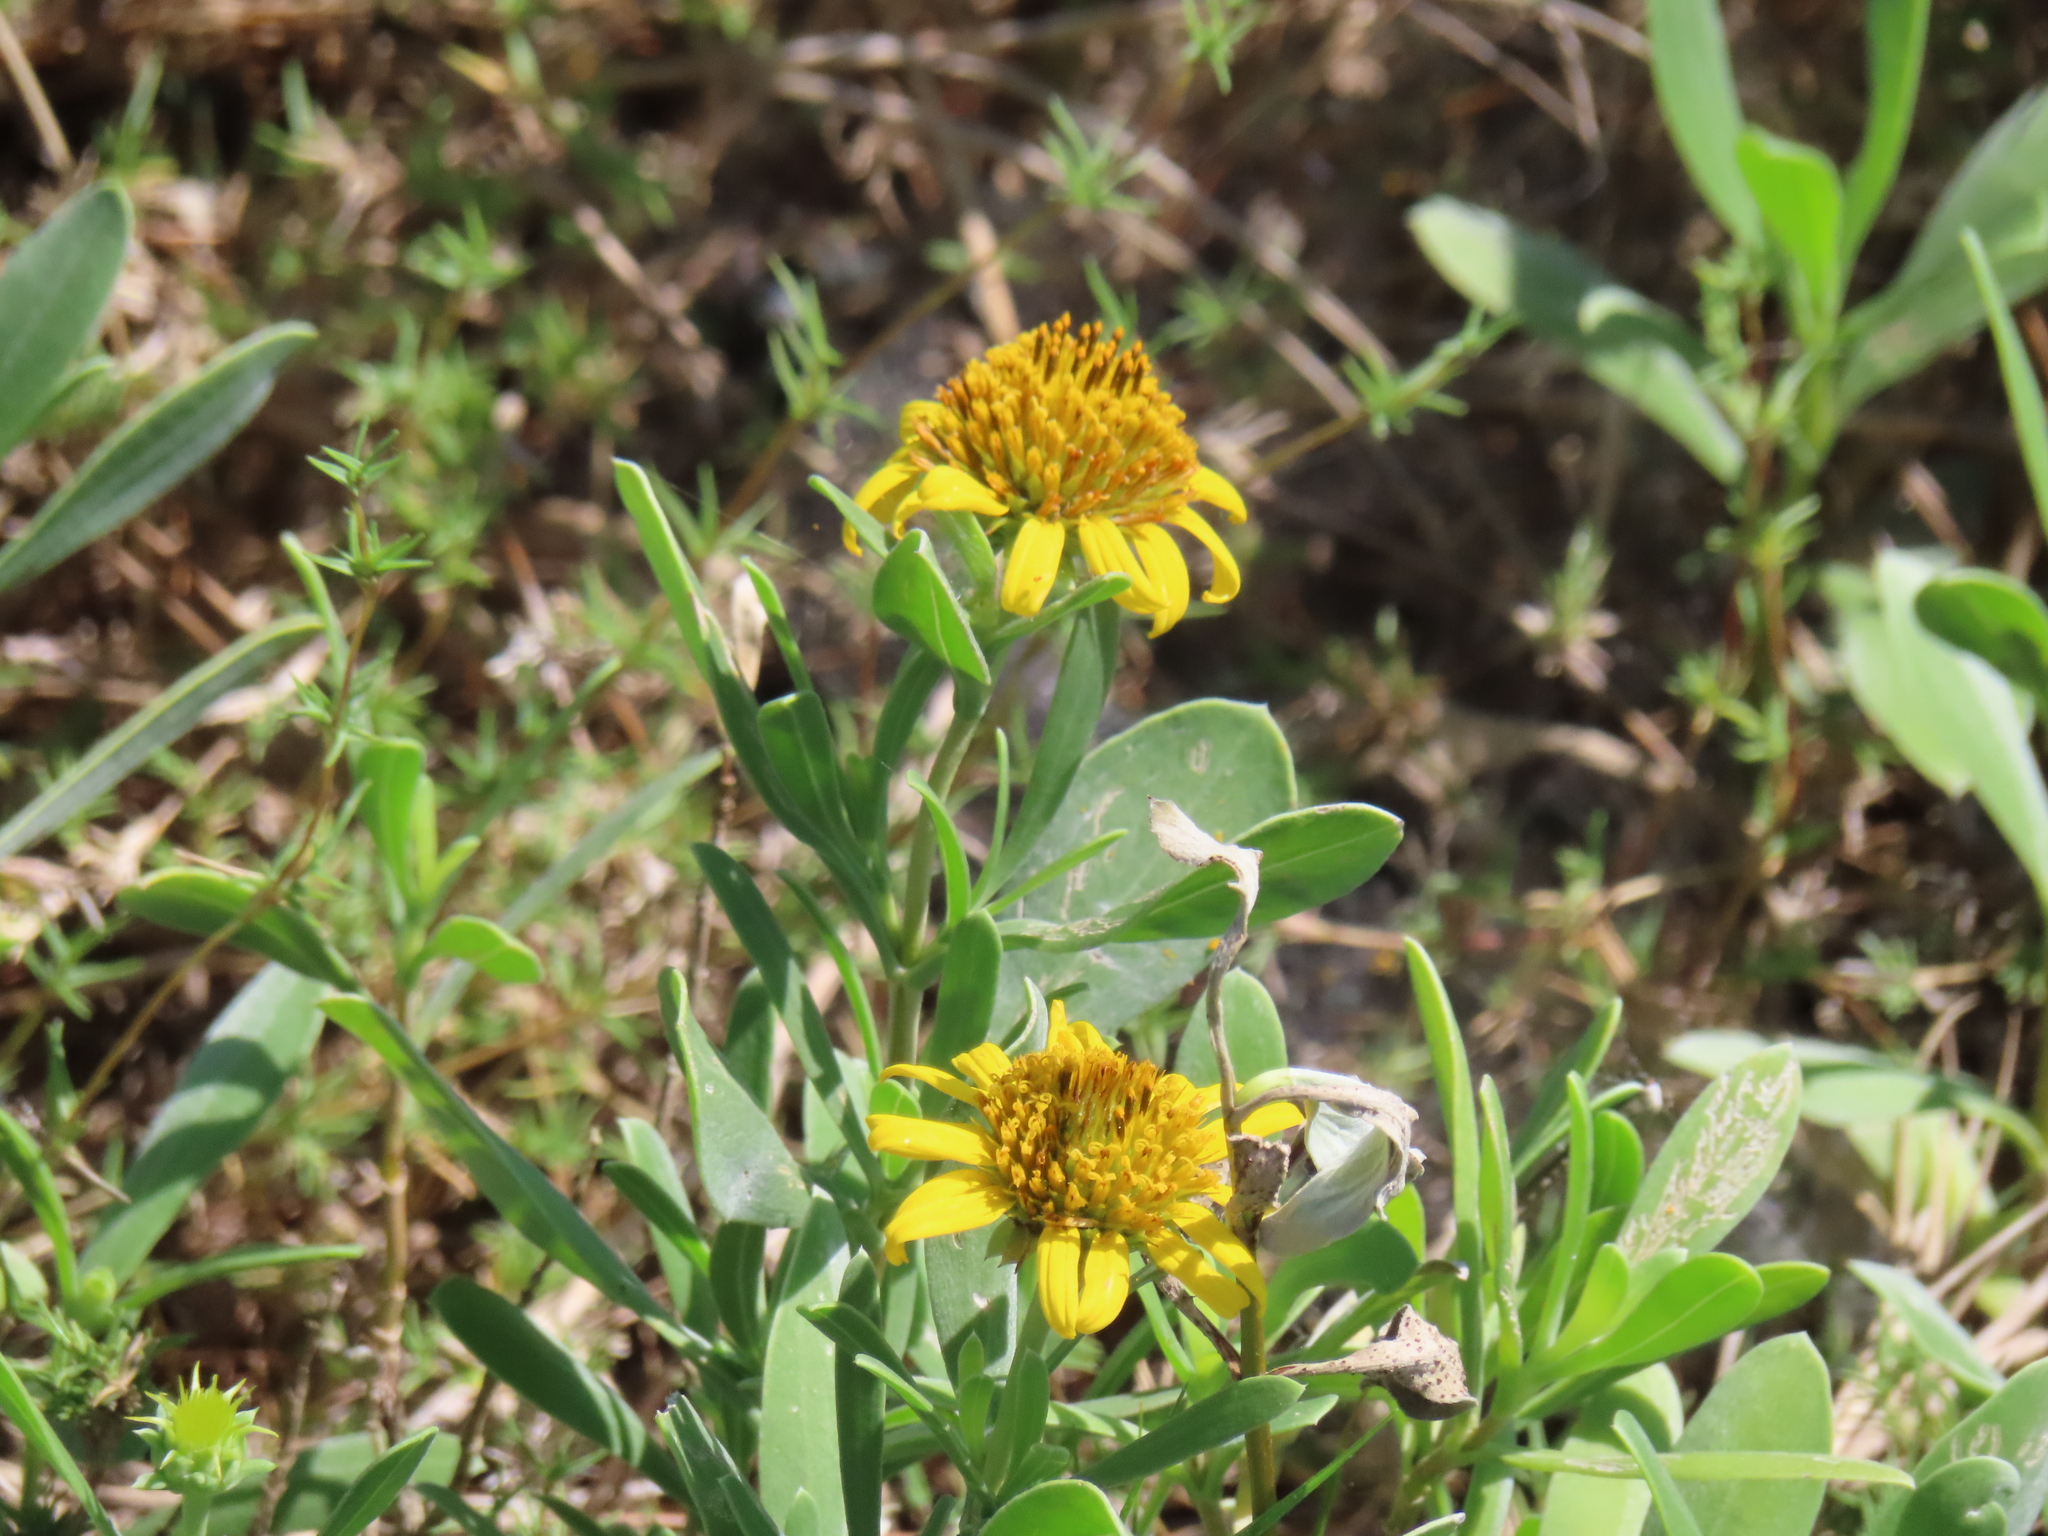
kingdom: Plantae
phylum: Tracheophyta
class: Magnoliopsida
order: Asterales
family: Asteraceae
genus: Borrichia
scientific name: Borrichia frutescens
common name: Sea oxeye
